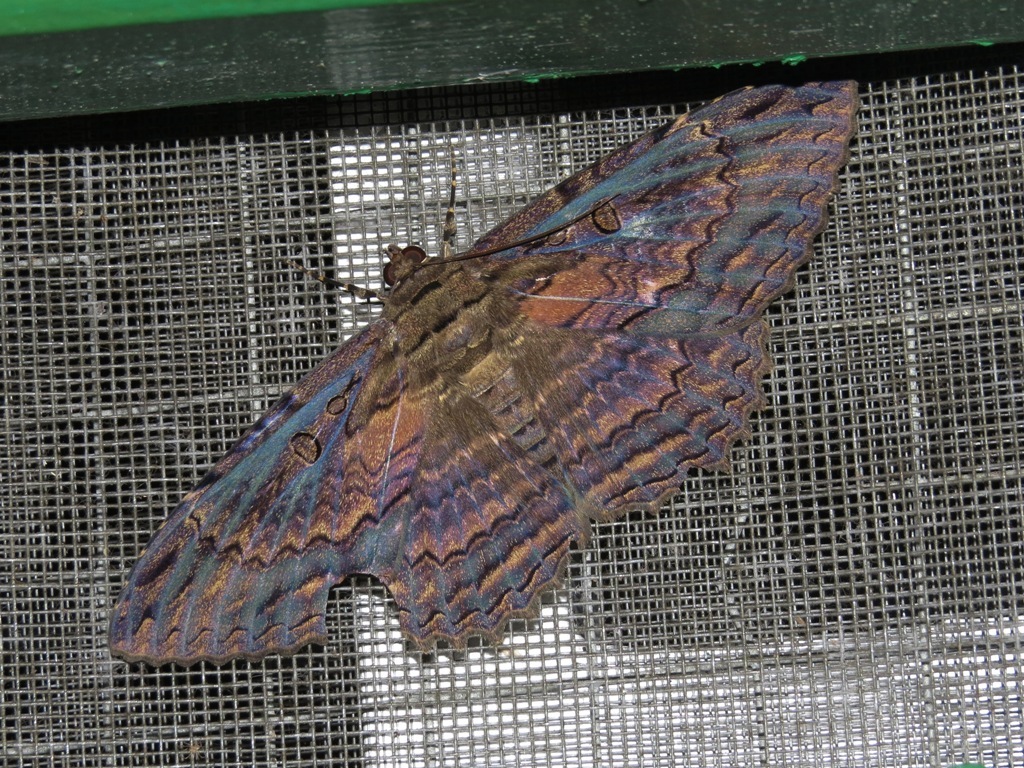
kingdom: Animalia
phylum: Arthropoda
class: Insecta
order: Lepidoptera
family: Erebidae
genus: Feigeria
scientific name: Feigeria buteo
